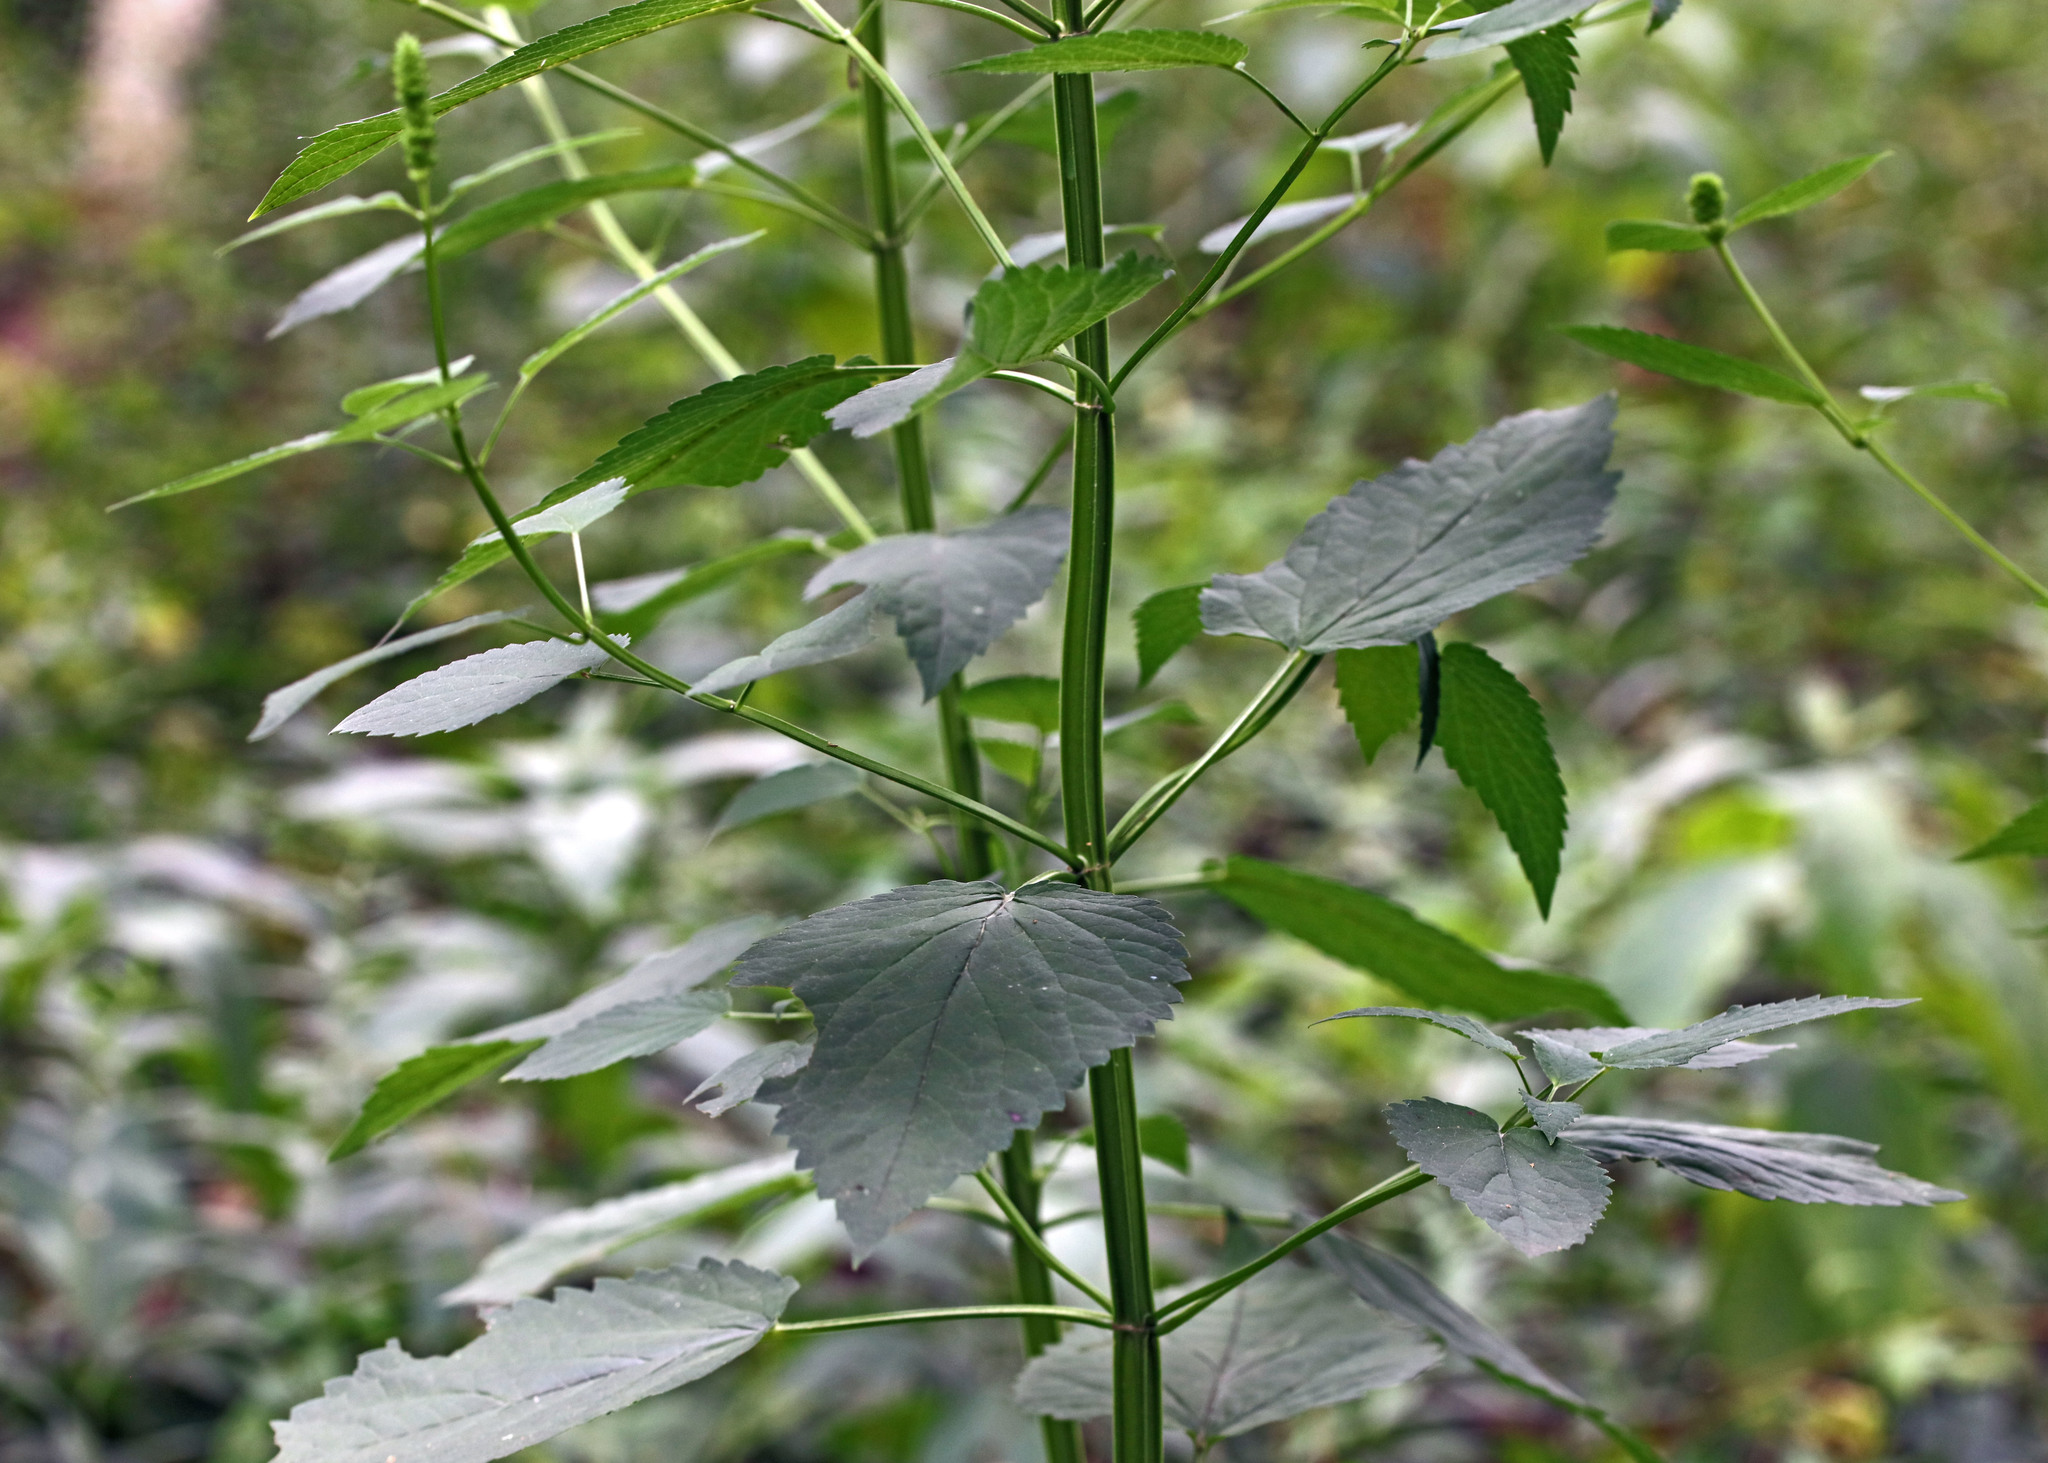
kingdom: Plantae
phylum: Tracheophyta
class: Magnoliopsida
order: Lamiales
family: Lamiaceae
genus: Agastache
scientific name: Agastache nepetoides
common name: Catnip giant hyssop
